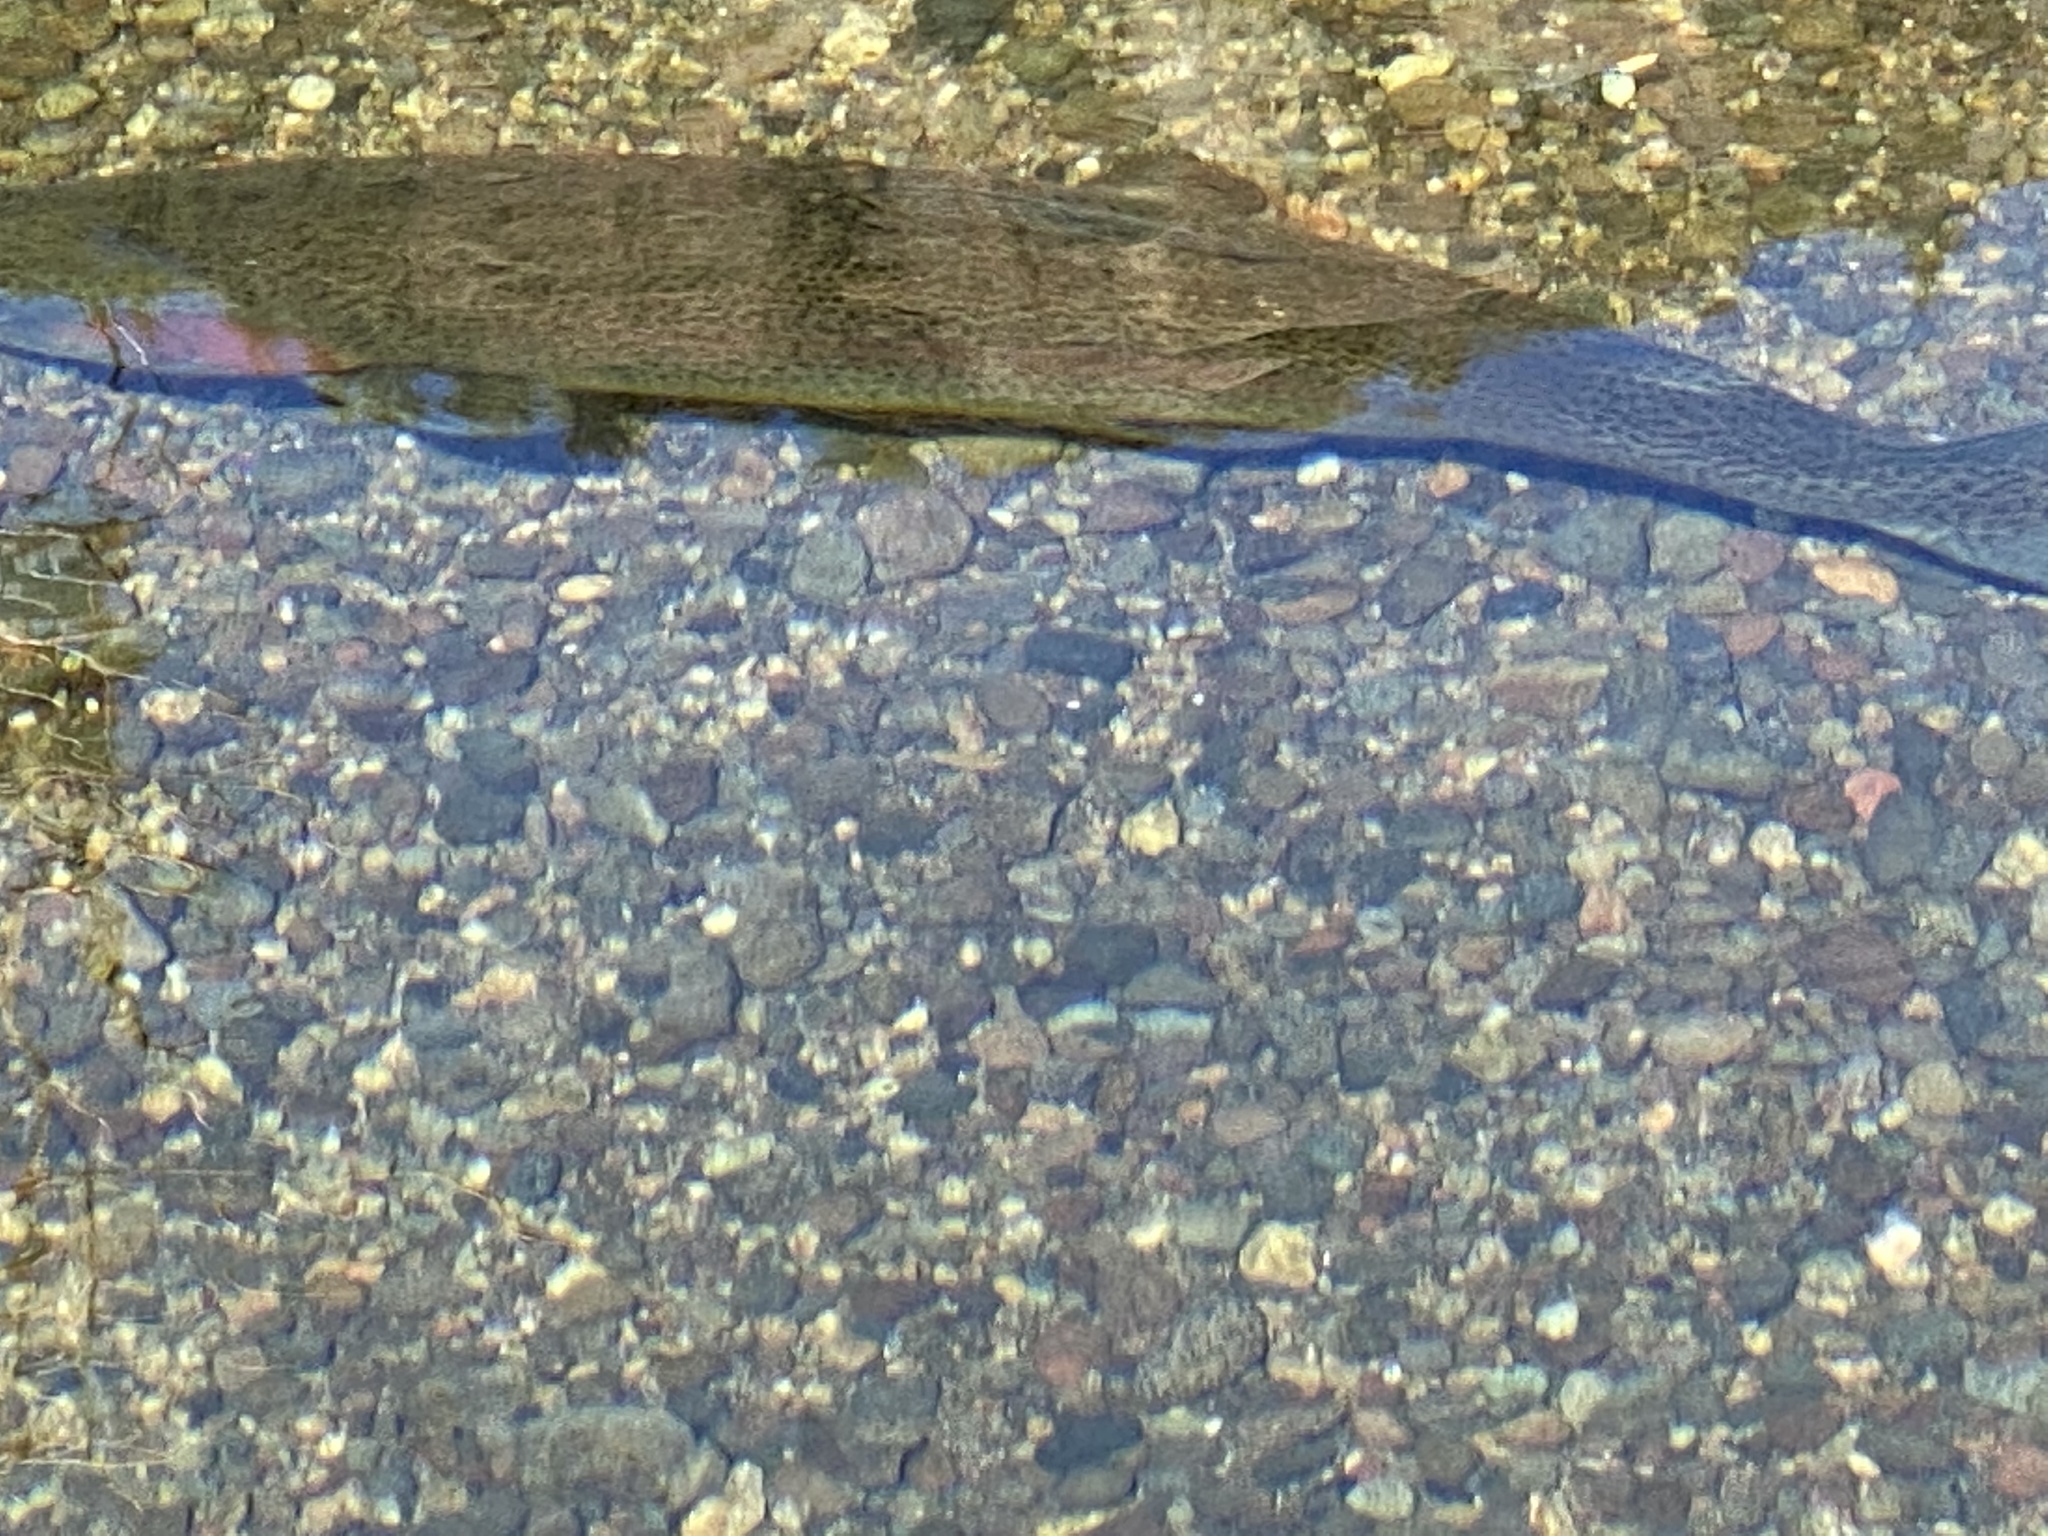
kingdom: Animalia
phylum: Chordata
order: Salmoniformes
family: Salmonidae
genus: Oncorhynchus
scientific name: Oncorhynchus mykiss
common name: Rainbow trout
